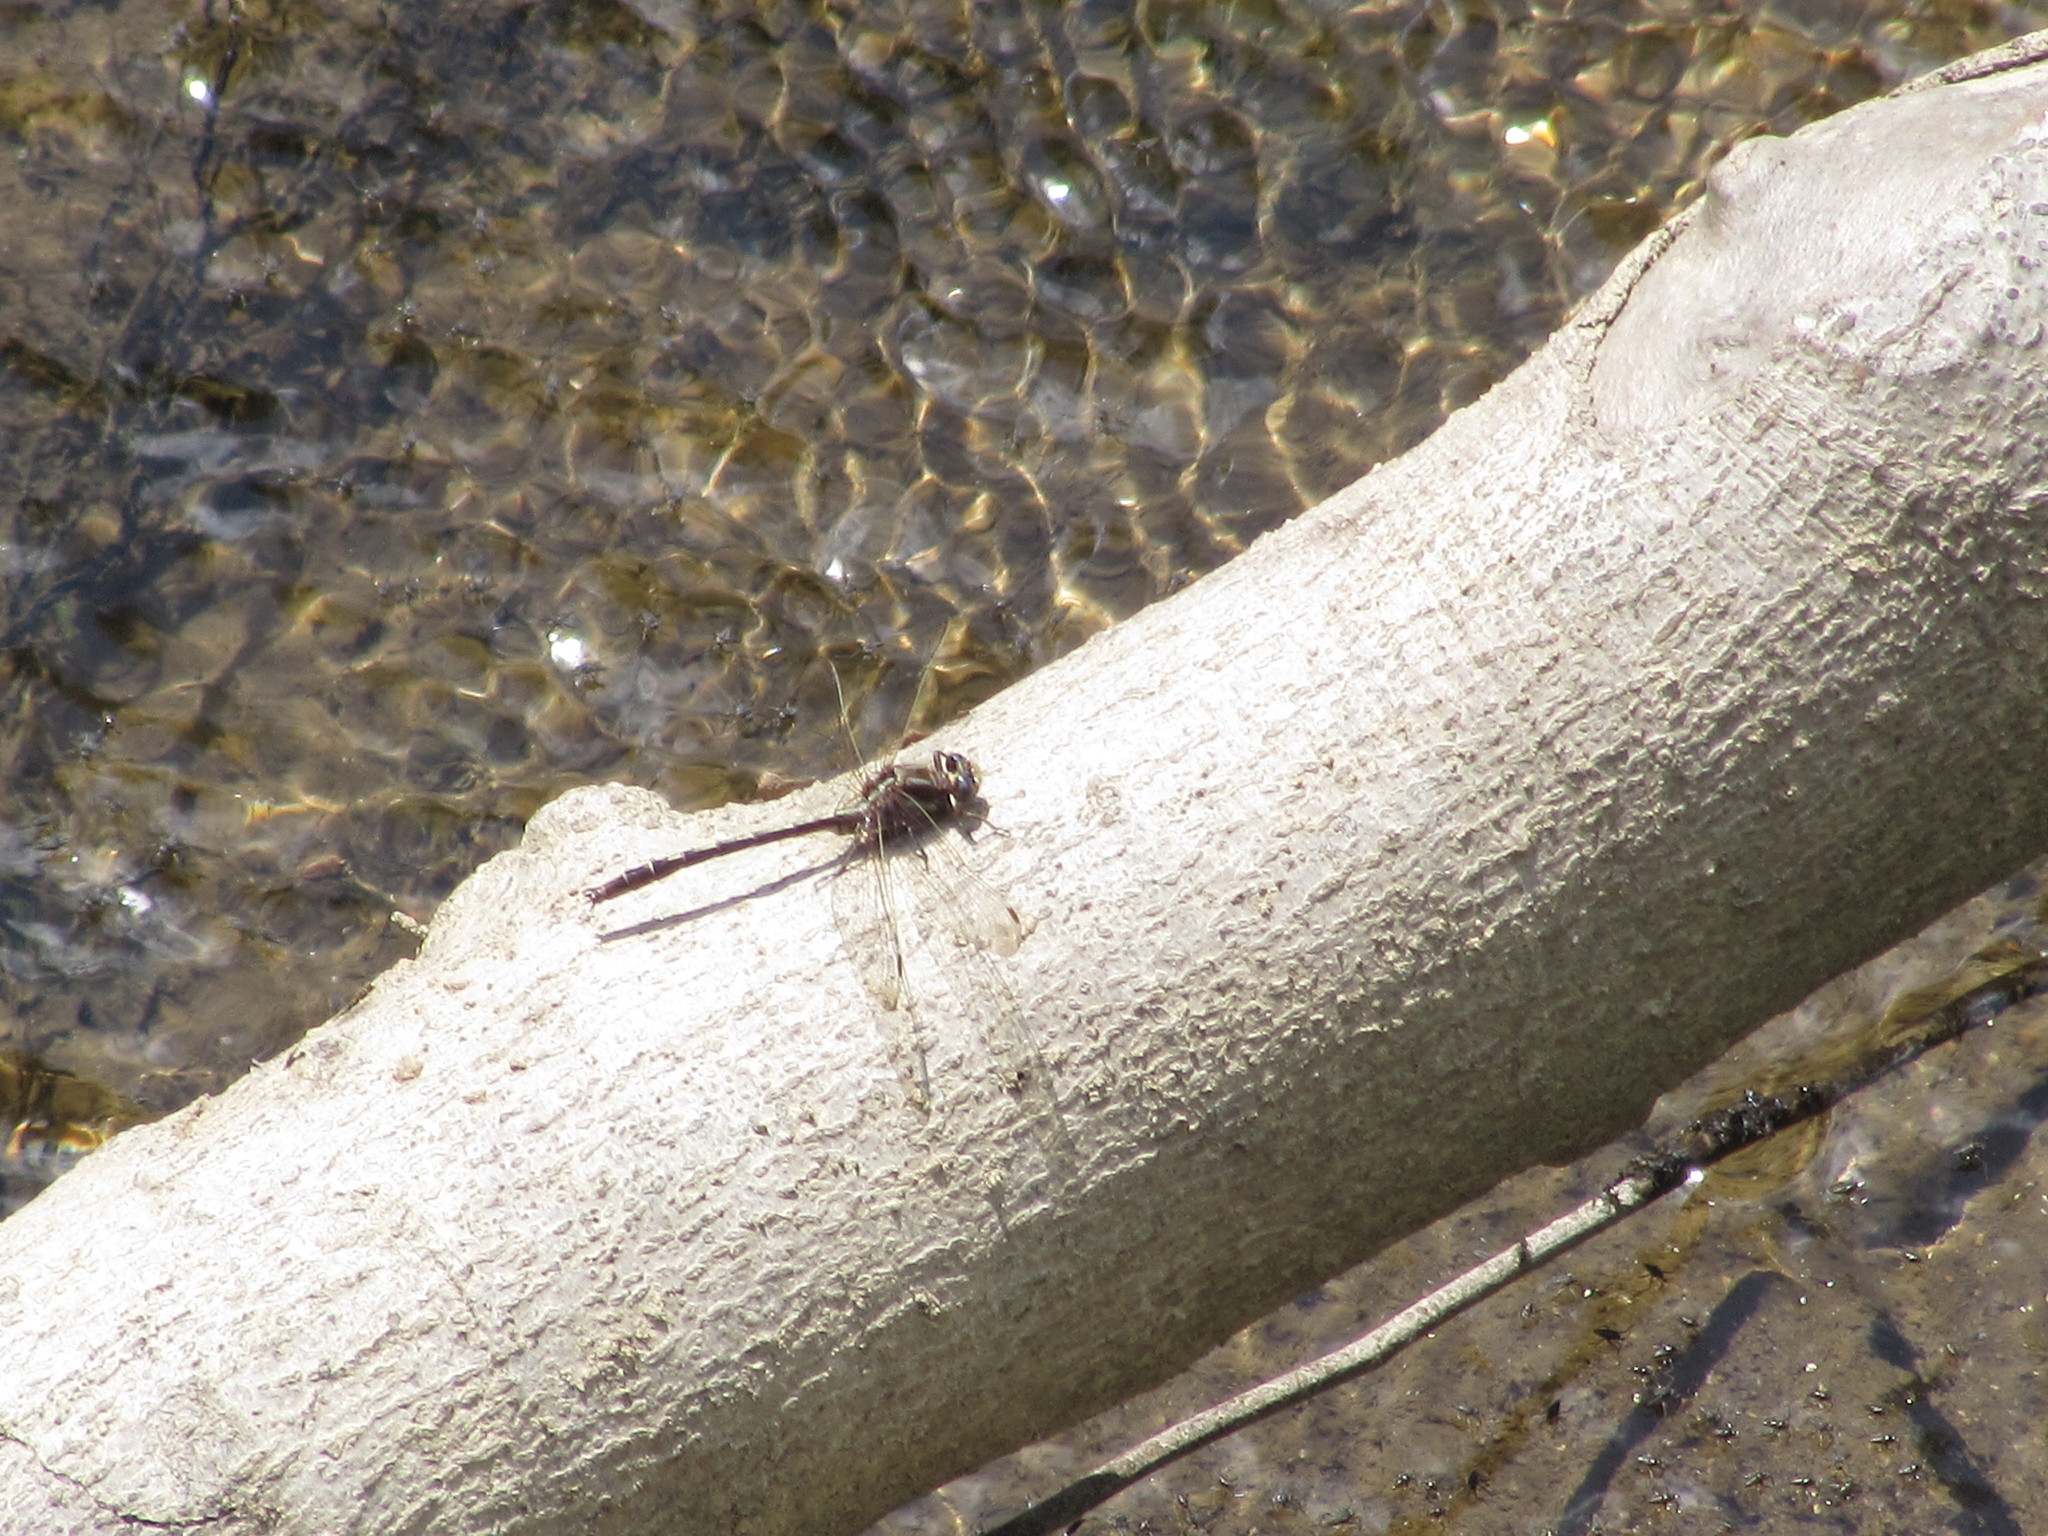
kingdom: Animalia
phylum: Arthropoda
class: Insecta
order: Odonata
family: Gomphidae
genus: Phanogomphus
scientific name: Phanogomphus lividus
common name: Ashy clubtail
